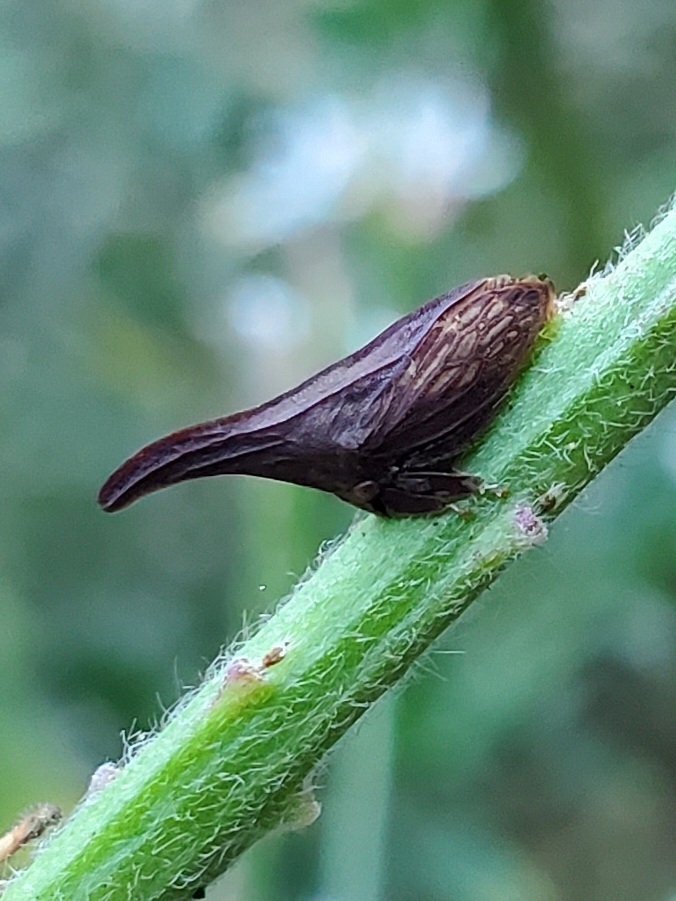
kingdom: Animalia
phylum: Arthropoda
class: Insecta
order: Hemiptera
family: Membracidae
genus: Enchenopa
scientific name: Enchenopa latipes
